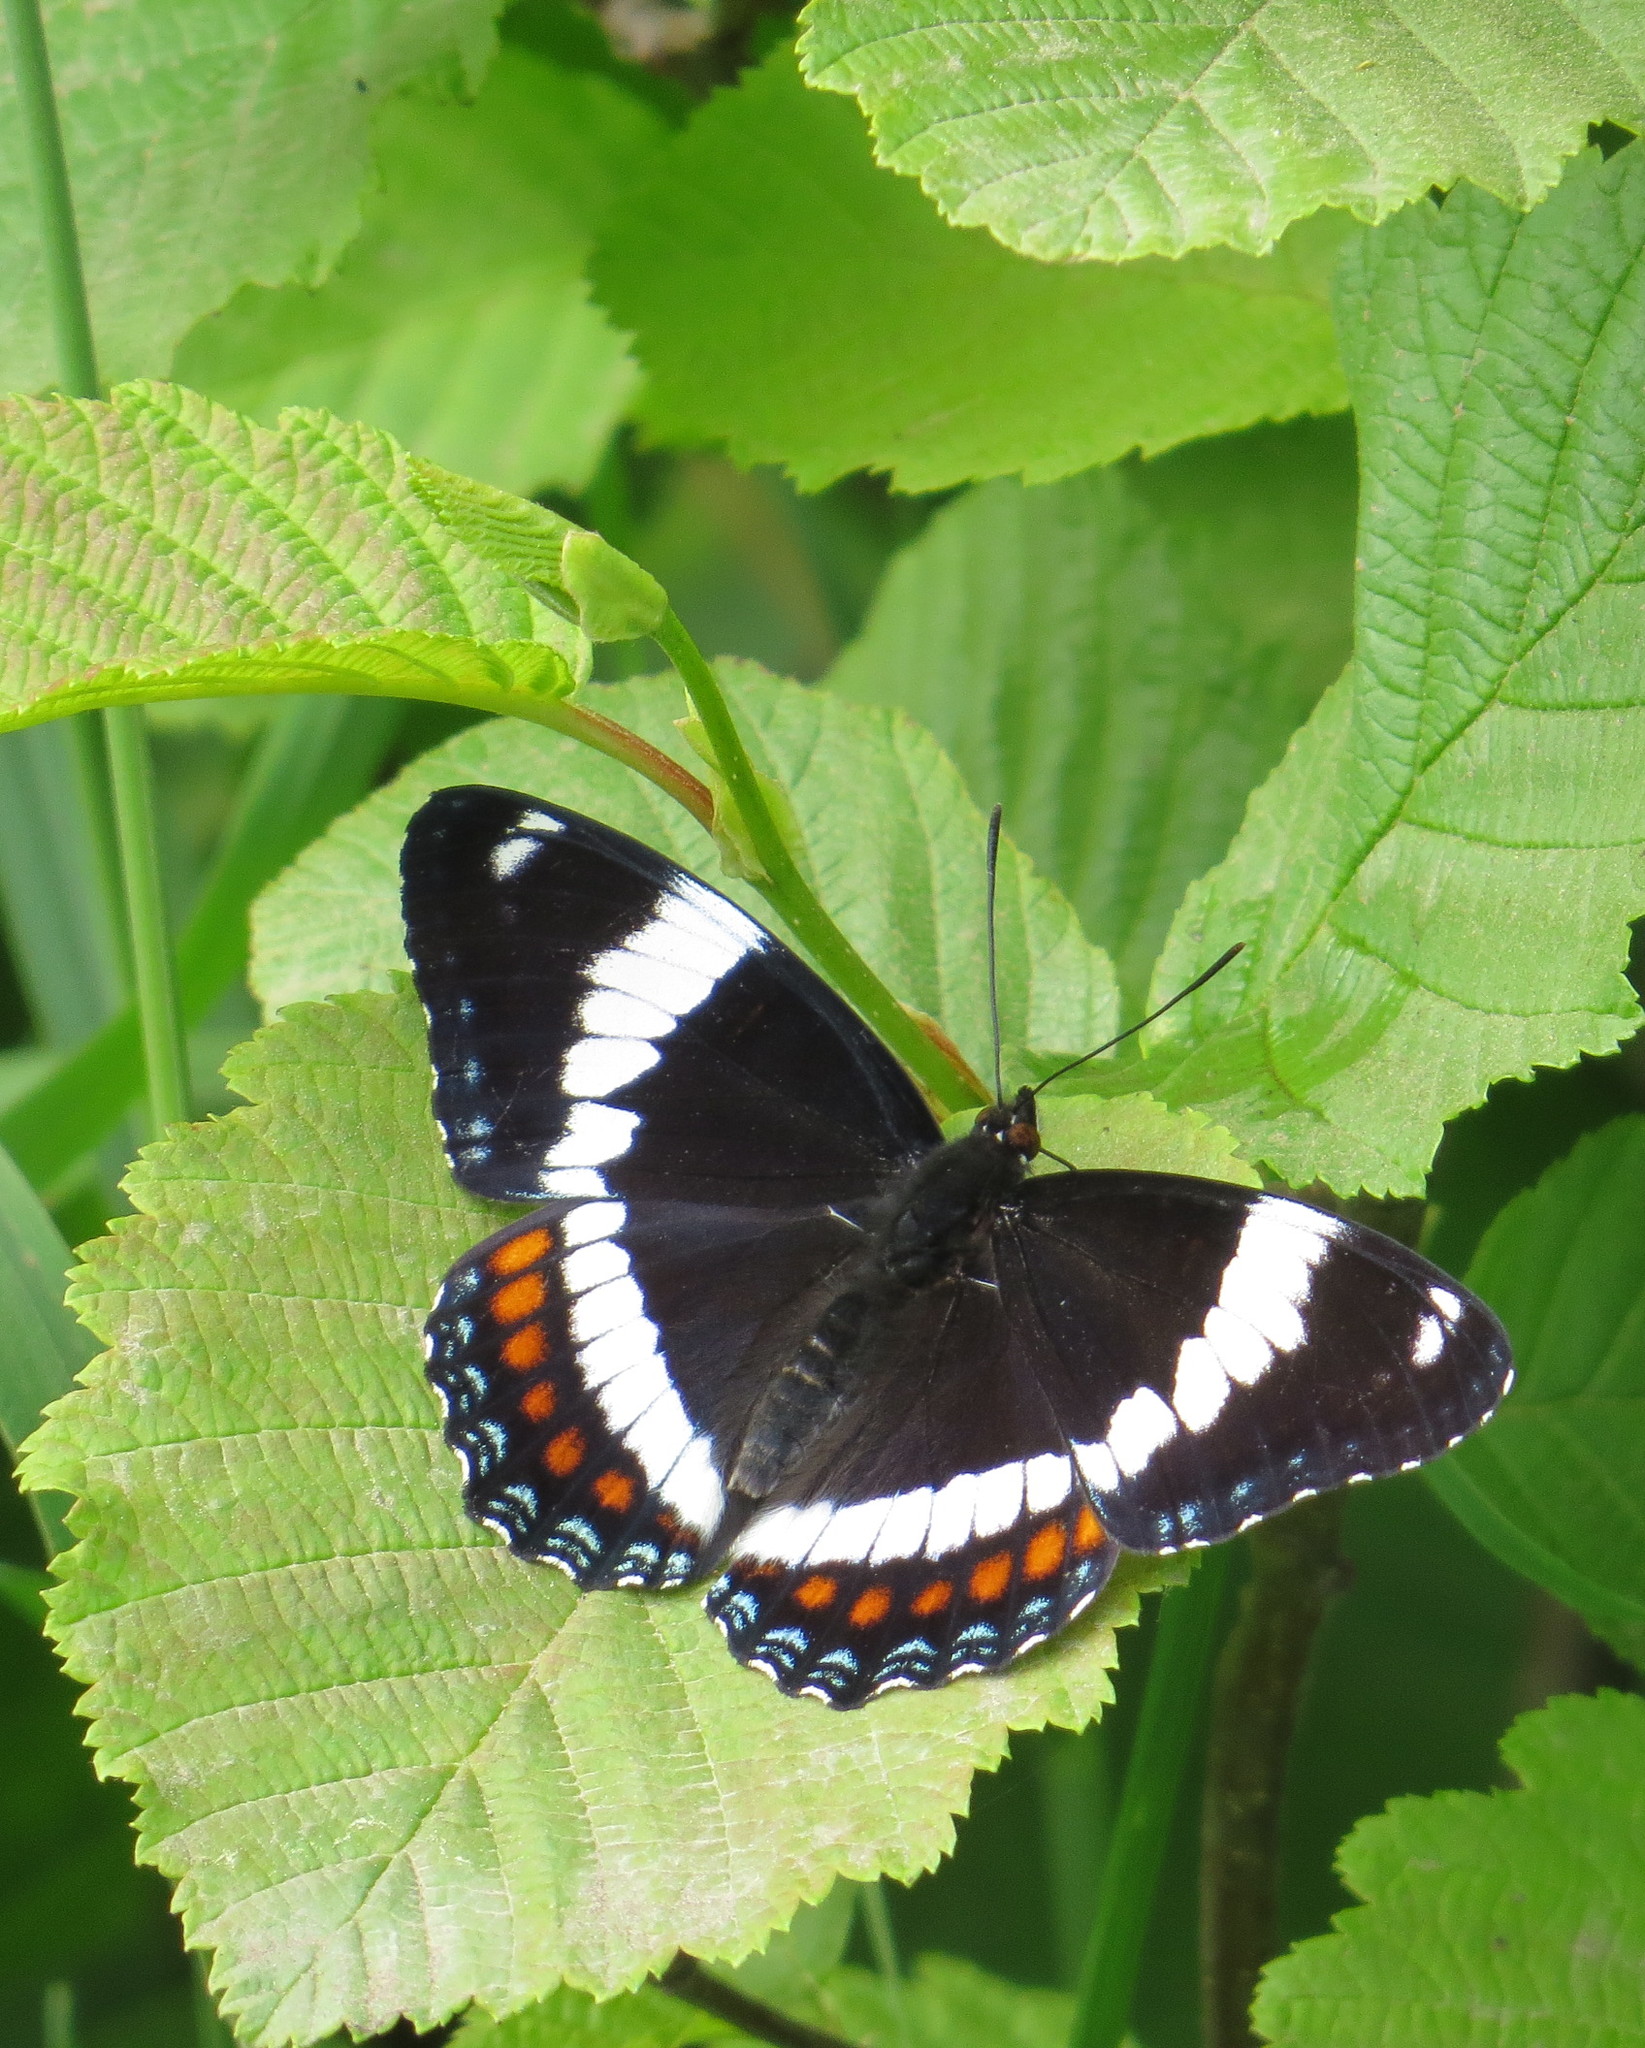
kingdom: Animalia
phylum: Arthropoda
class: Insecta
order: Lepidoptera
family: Nymphalidae
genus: Limenitis
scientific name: Limenitis arthemis
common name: Red-spotted admiral
